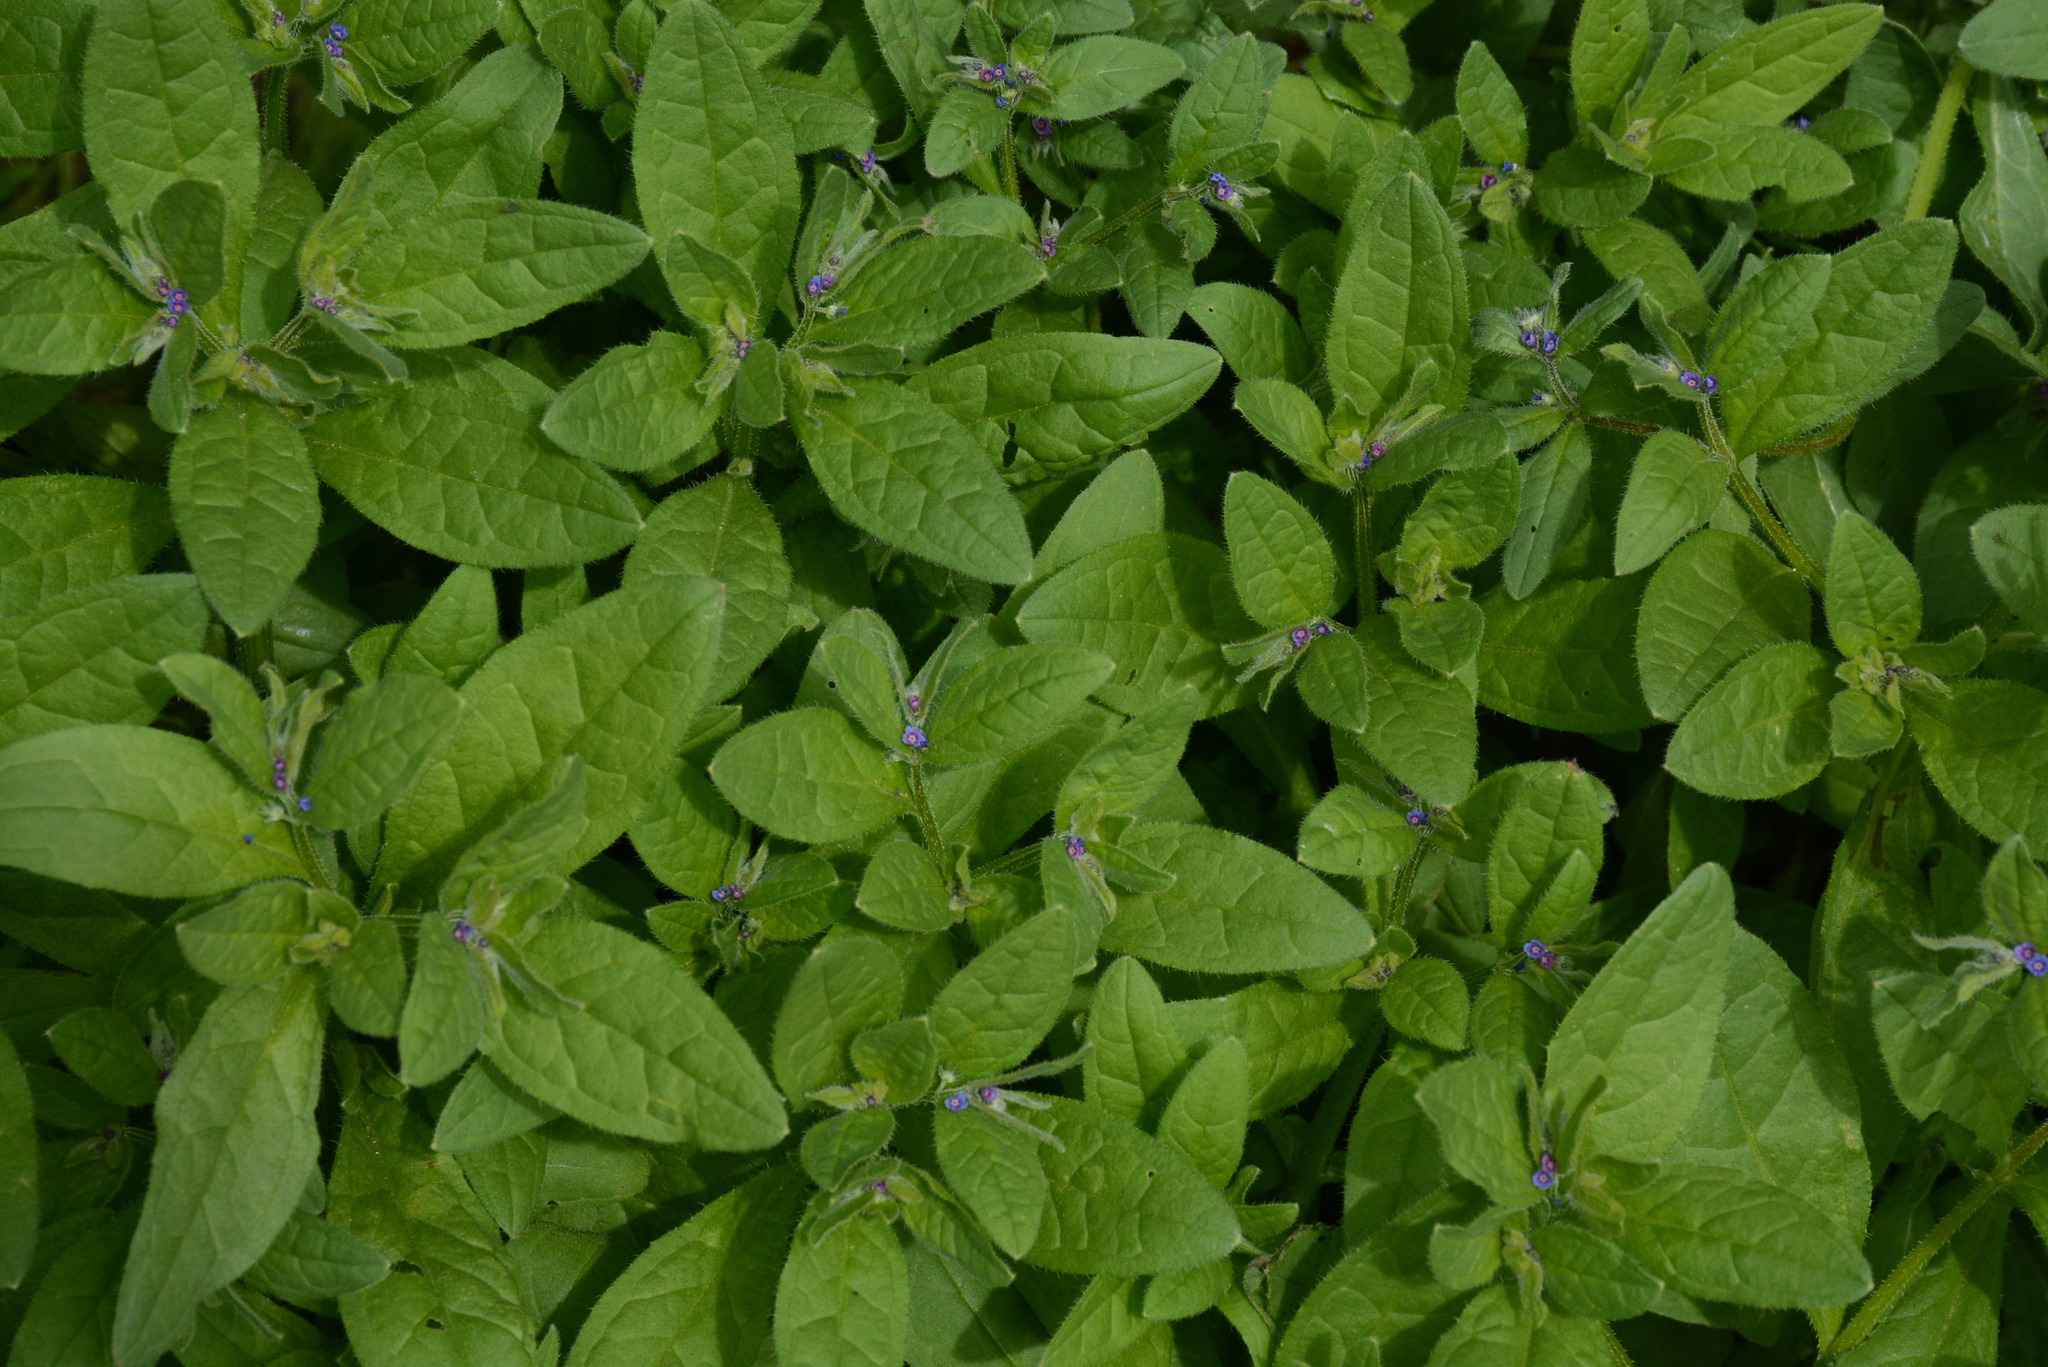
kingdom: Plantae
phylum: Tracheophyta
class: Magnoliopsida
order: Boraginales
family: Boraginaceae
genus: Asperugo
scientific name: Asperugo procumbens
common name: Madwort
